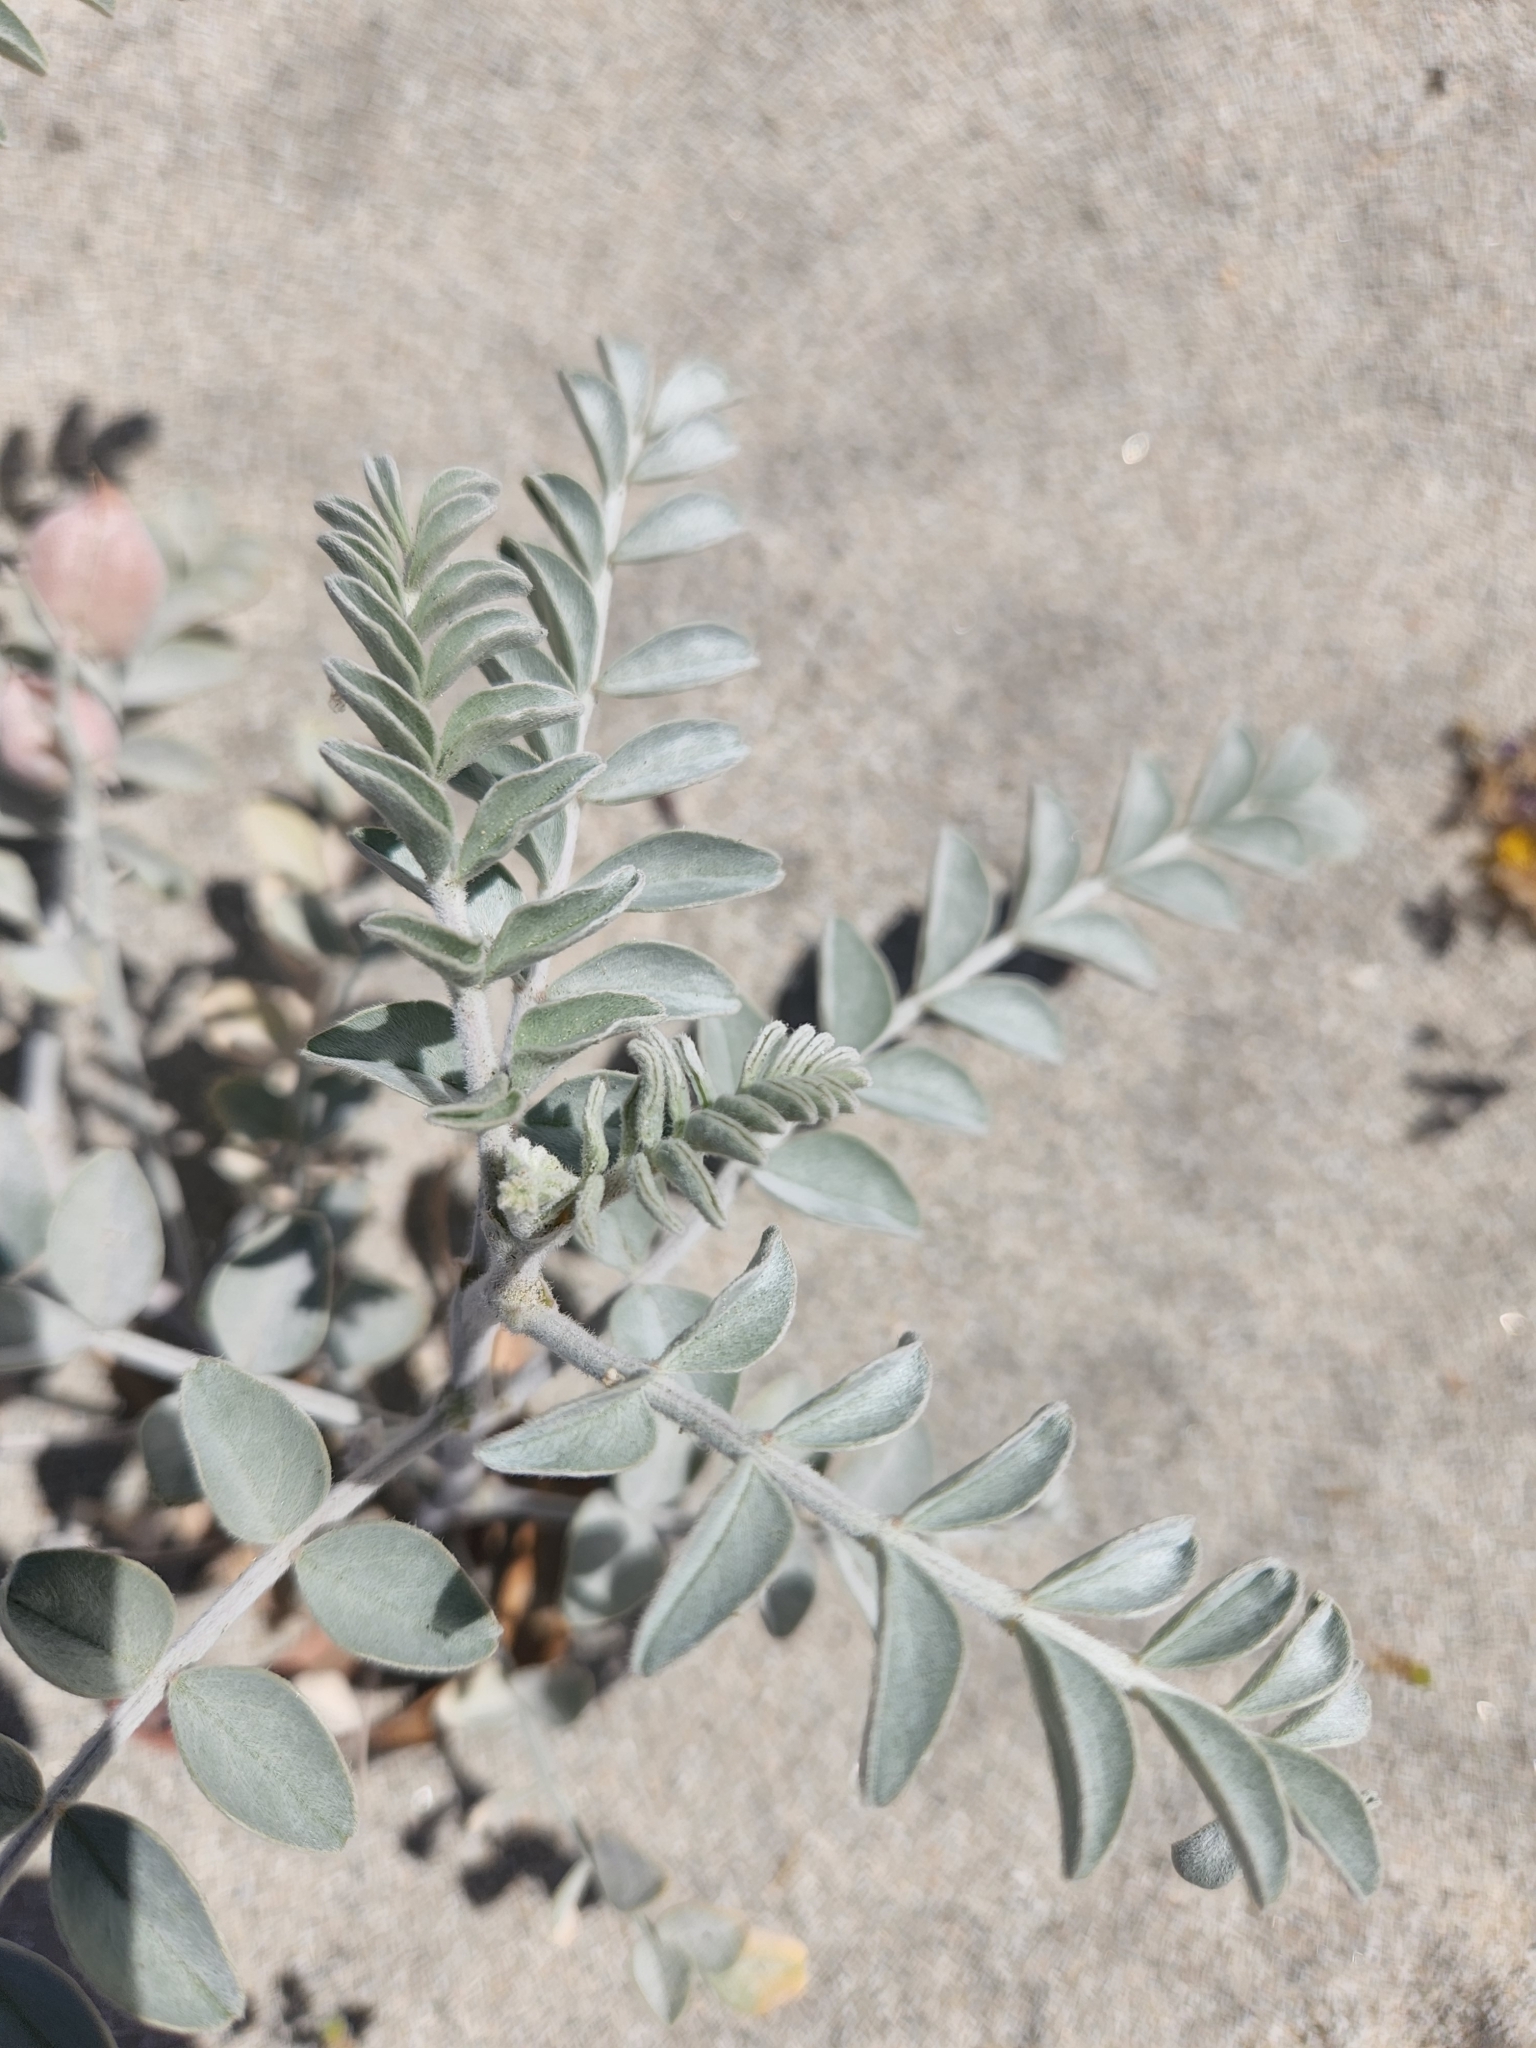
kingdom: Plantae
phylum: Tracheophyta
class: Magnoliopsida
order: Fabales
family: Fabaceae
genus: Astragalus
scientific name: Astragalus lentiginosus
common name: Freckled milkvetch
